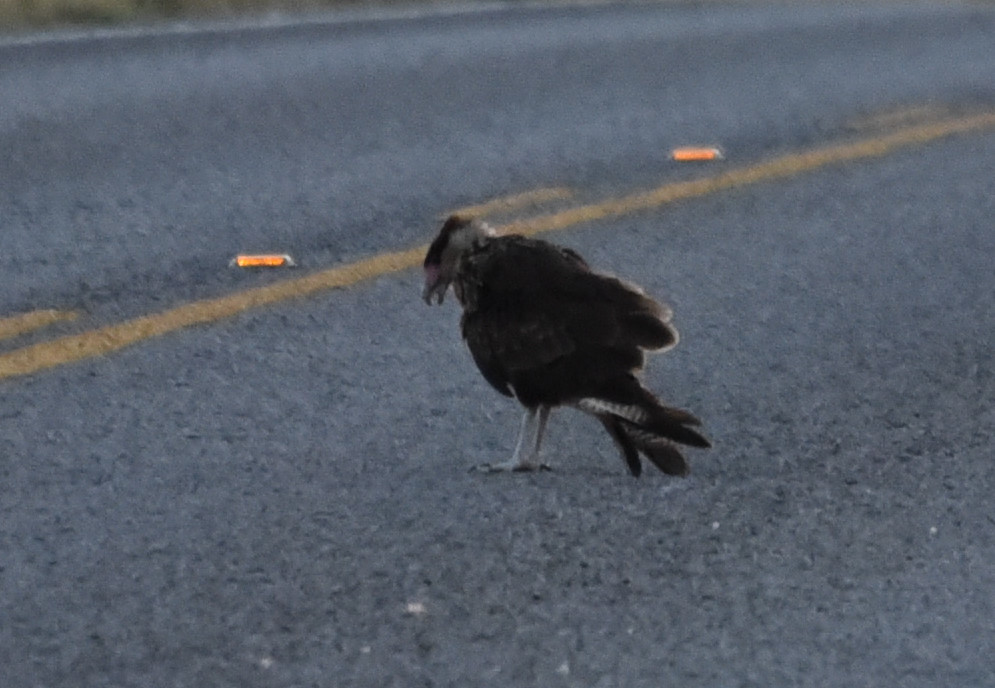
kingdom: Animalia
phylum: Chordata
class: Aves
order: Falconiformes
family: Falconidae
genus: Caracara
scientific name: Caracara plancus
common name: Southern caracara
